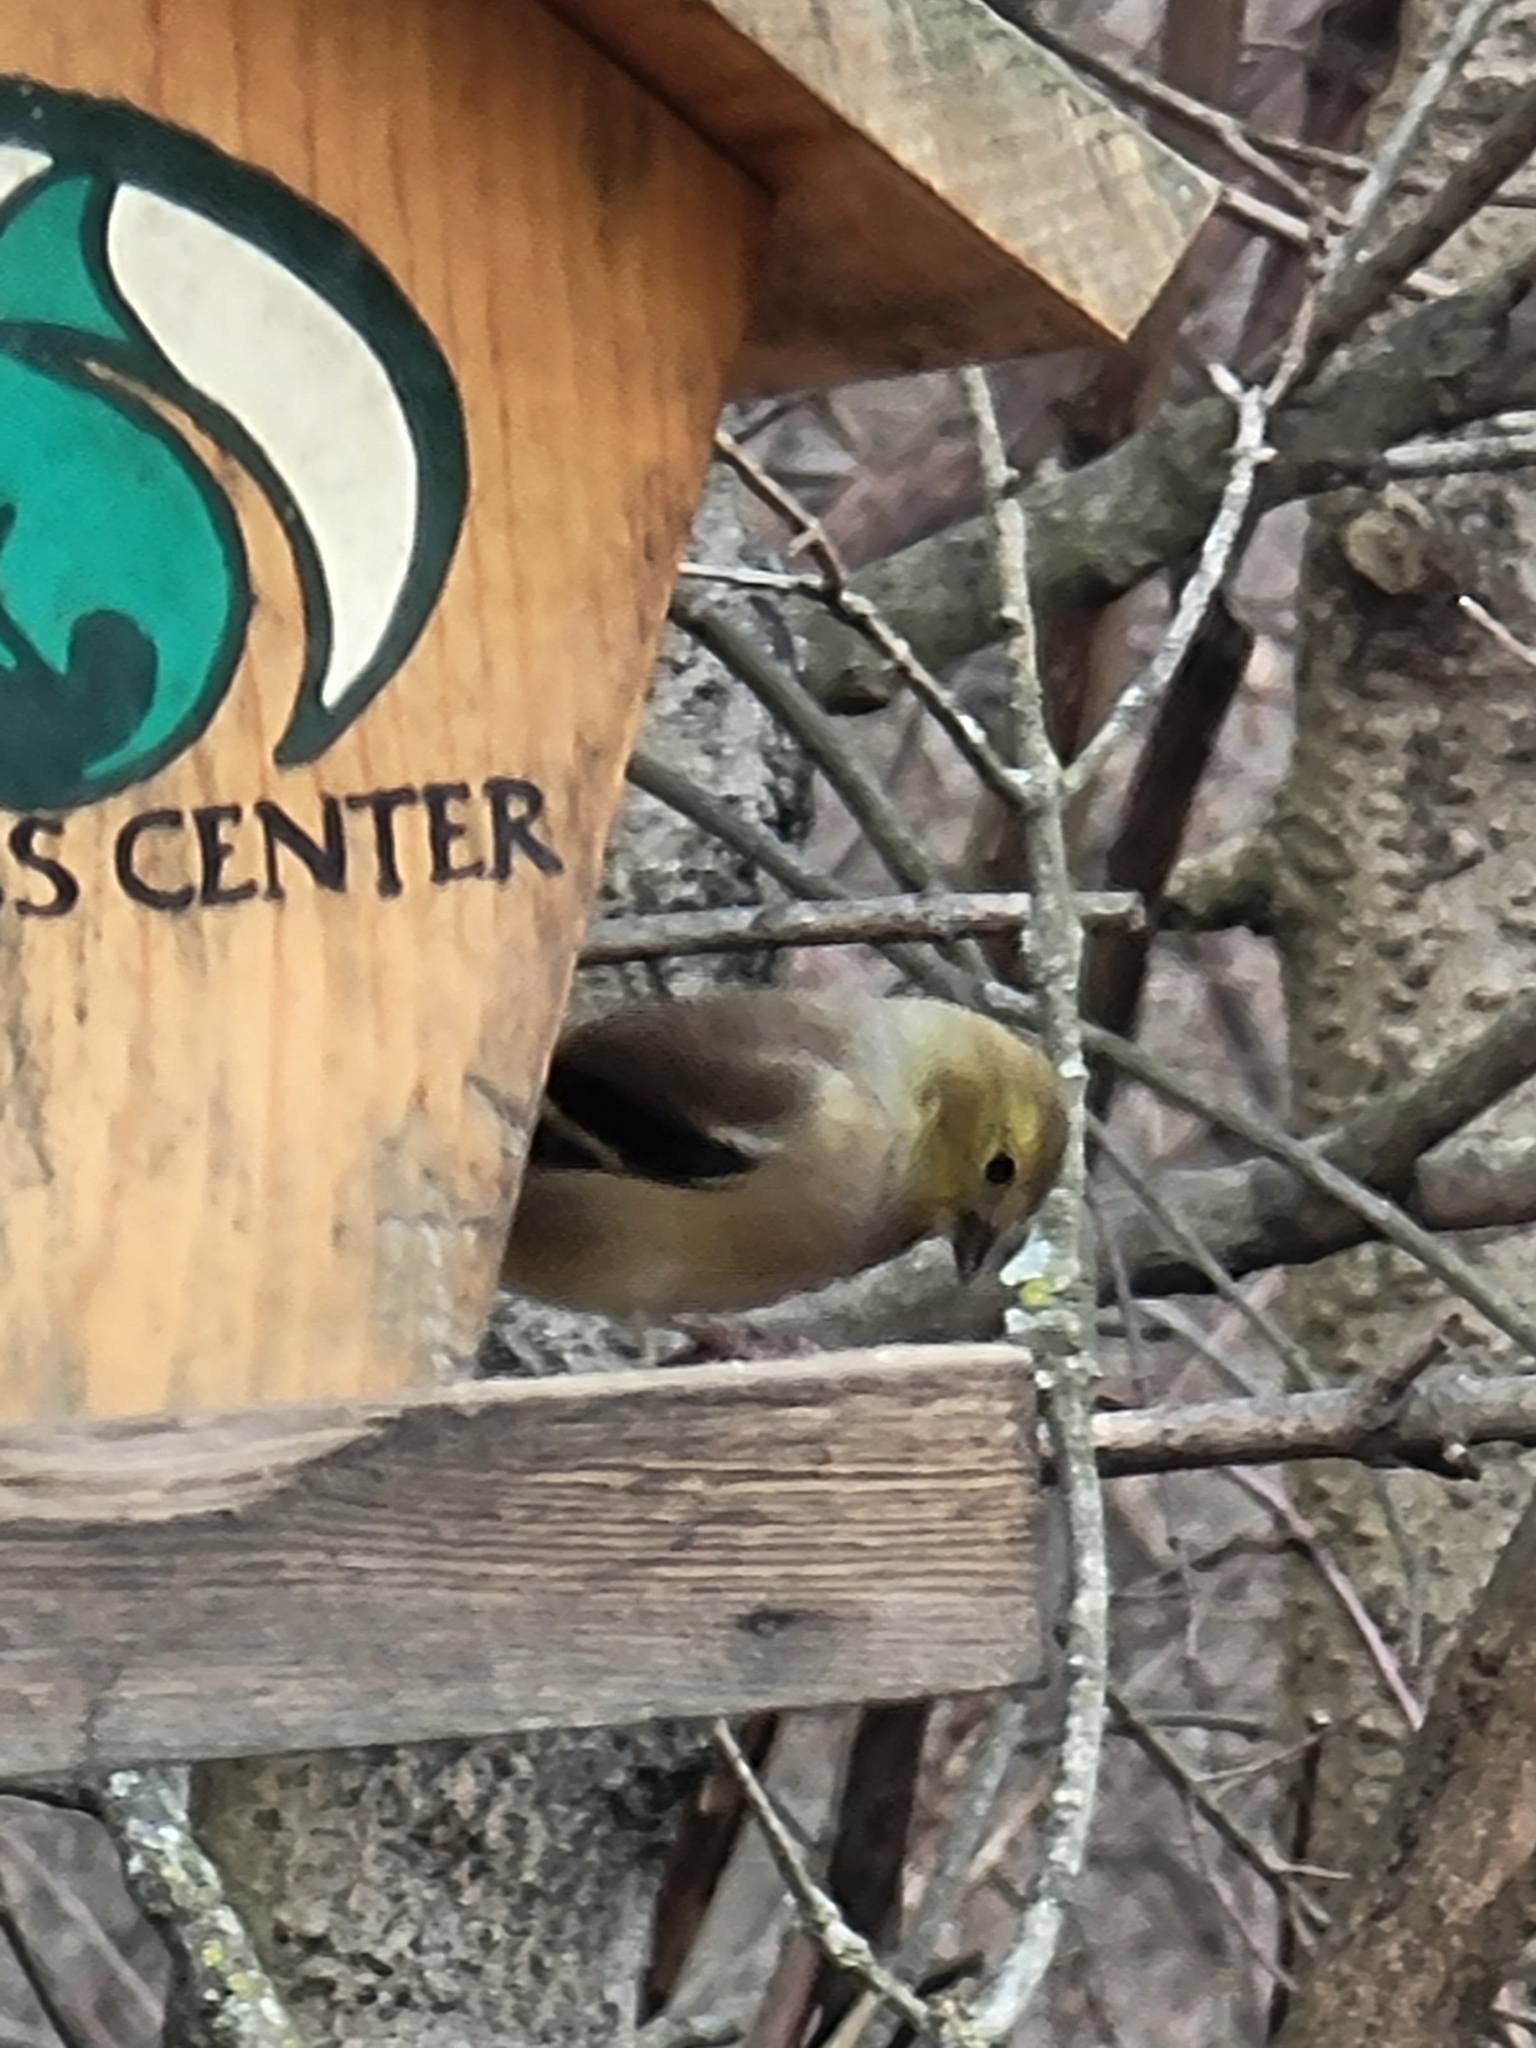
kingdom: Animalia
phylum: Chordata
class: Aves
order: Passeriformes
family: Fringillidae
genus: Spinus
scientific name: Spinus tristis
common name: American goldfinch
